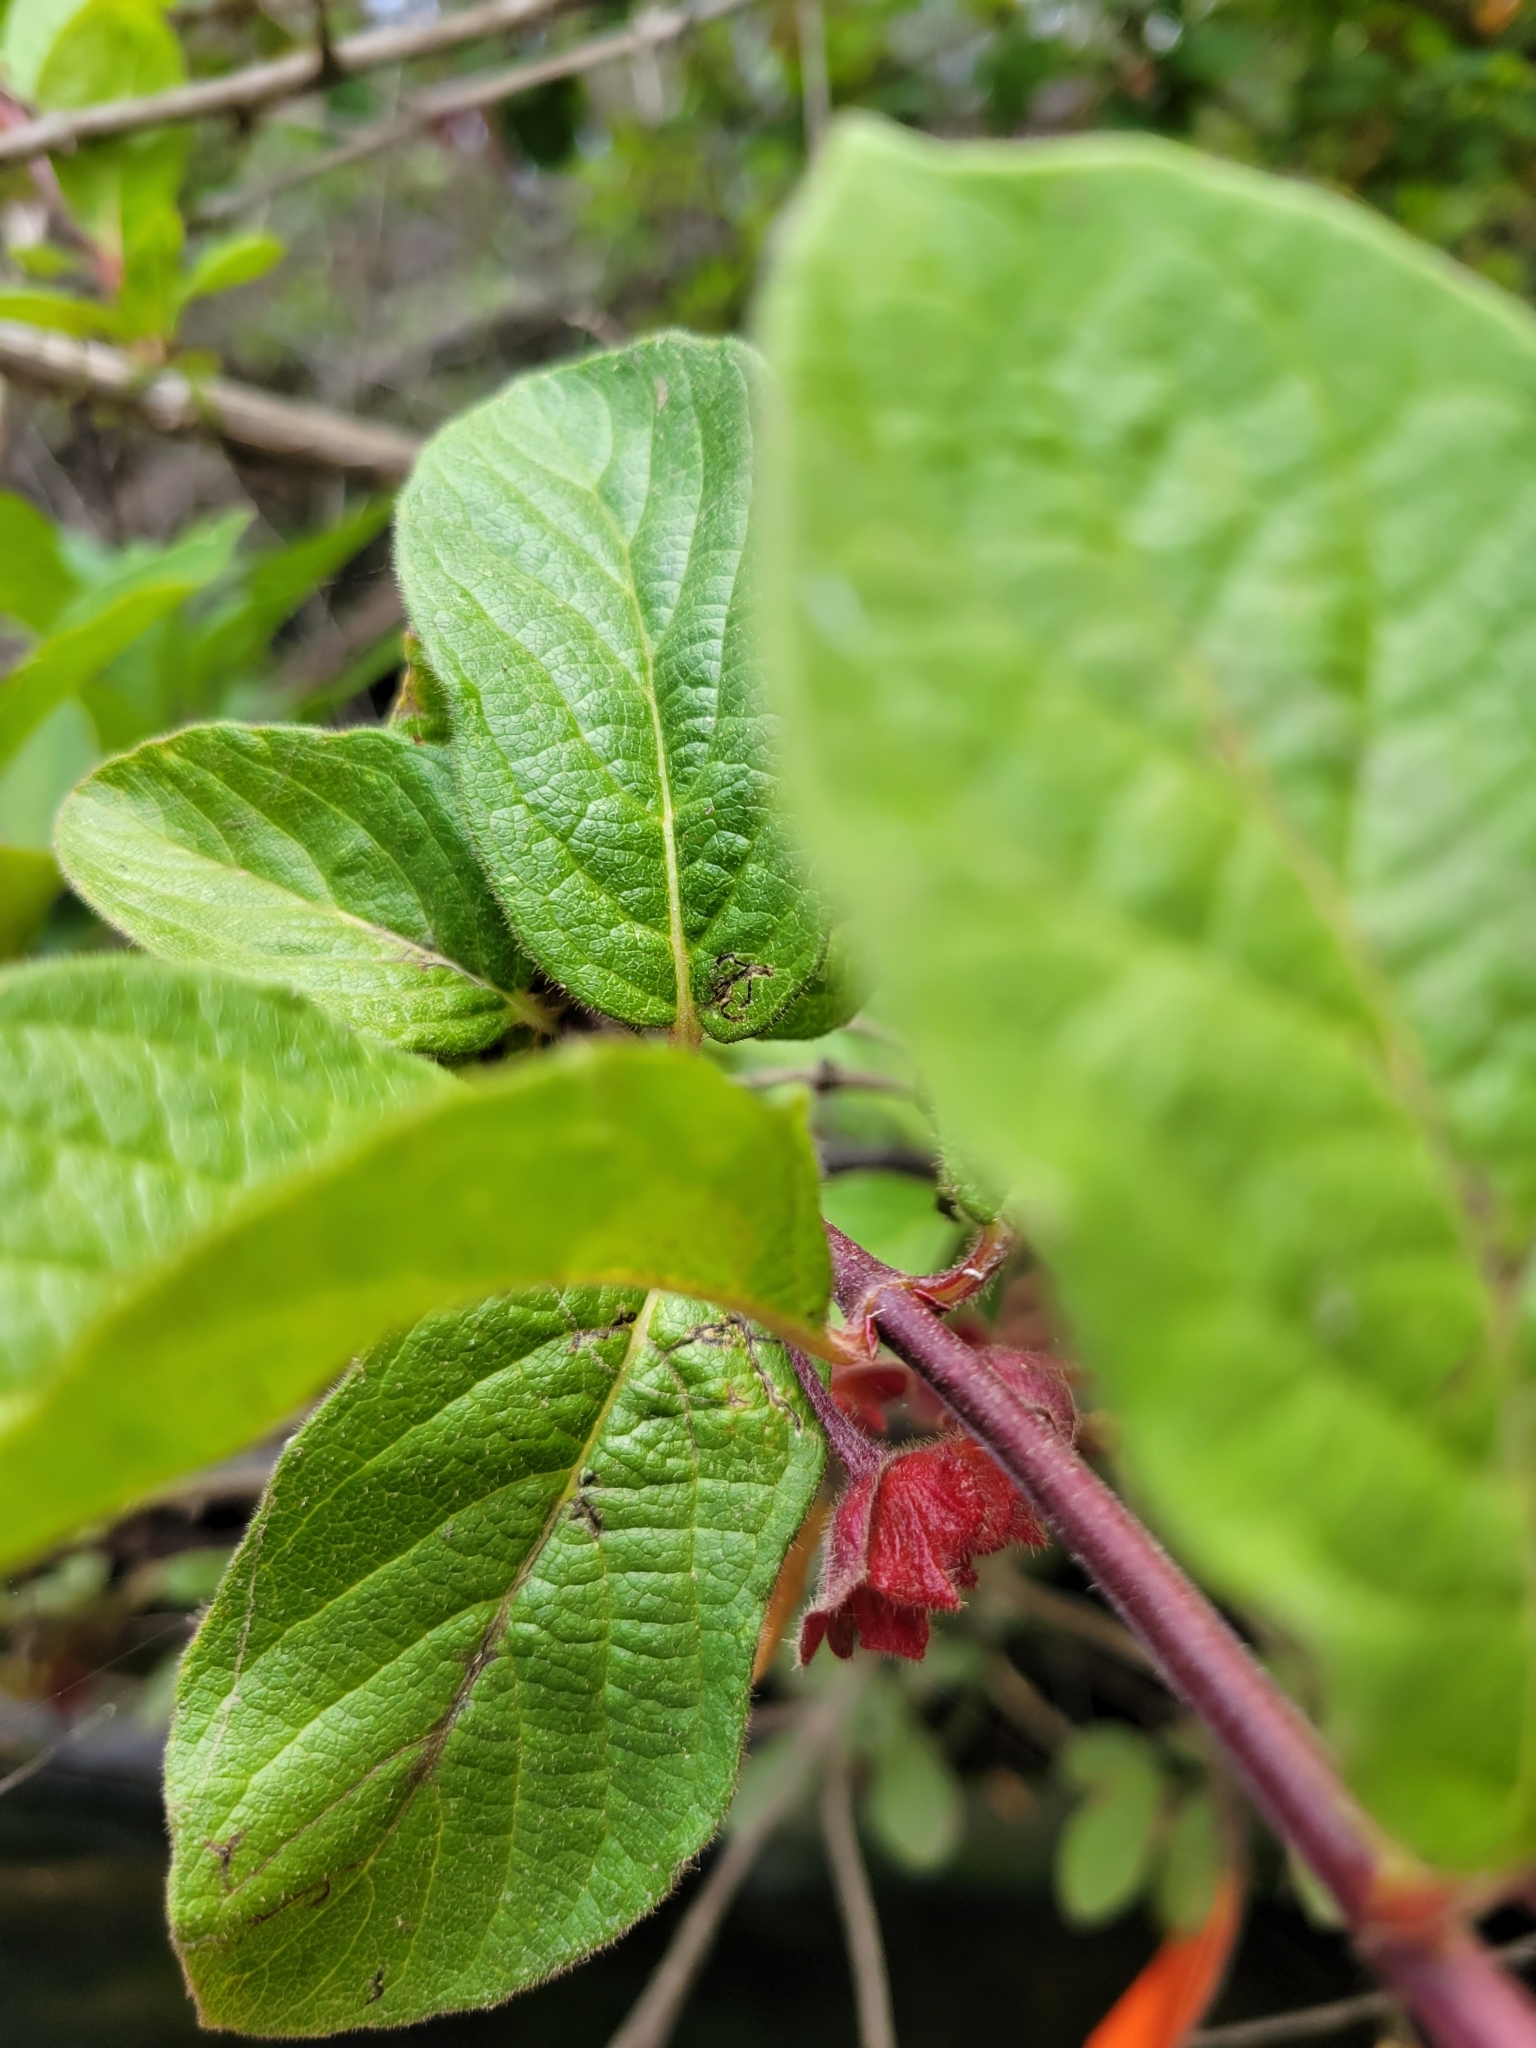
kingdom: Plantae
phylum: Tracheophyta
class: Magnoliopsida
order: Dipsacales
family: Caprifoliaceae
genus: Lonicera
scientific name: Lonicera involucrata
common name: Californian honeysuckle
